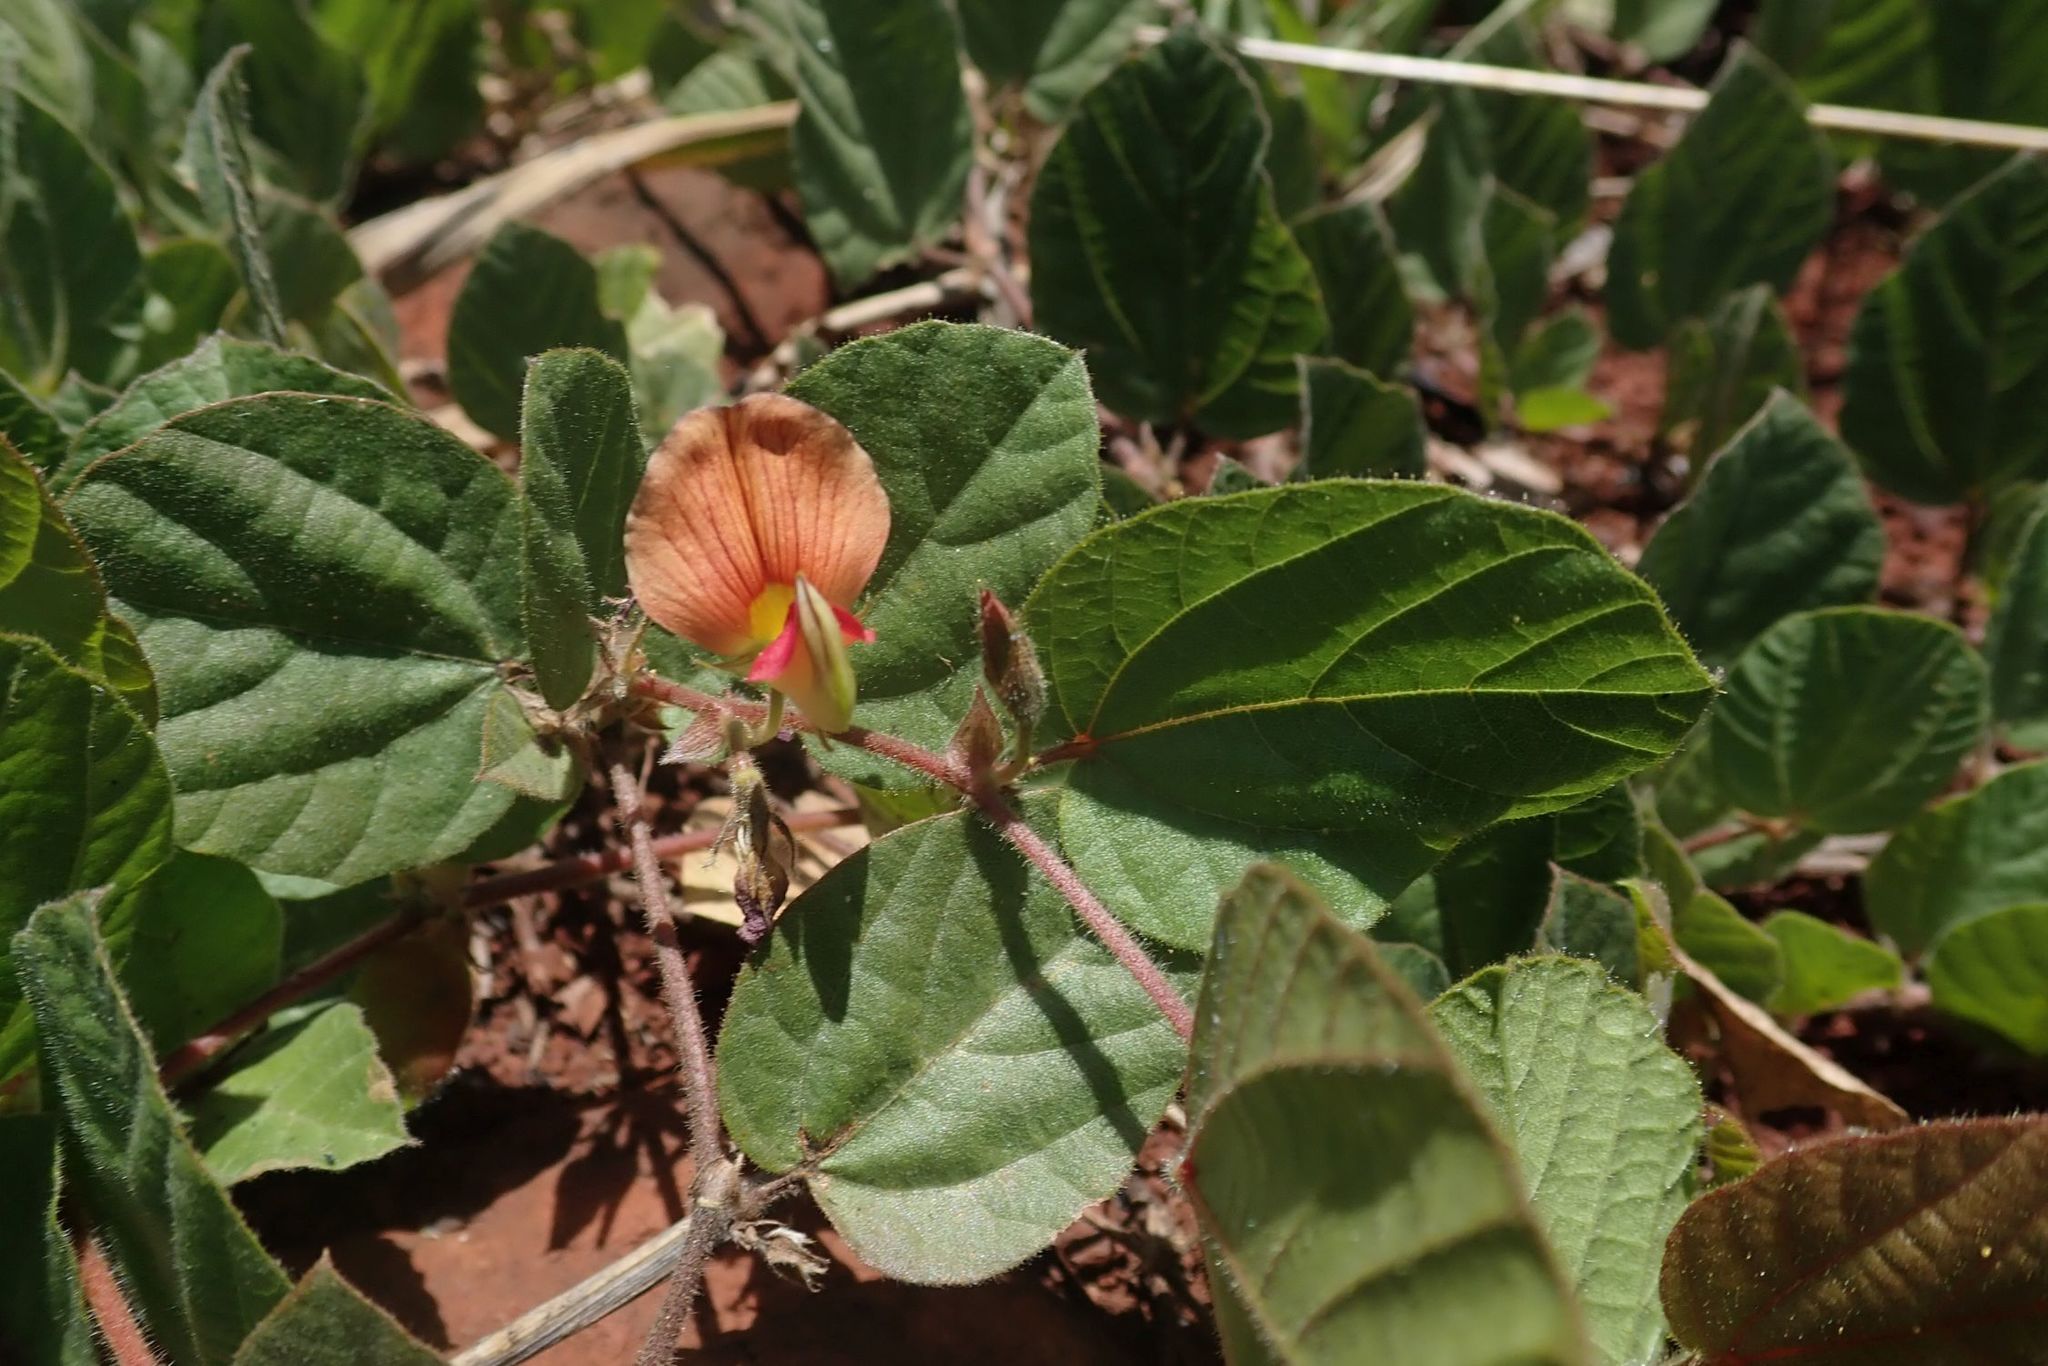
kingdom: Plantae
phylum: Tracheophyta
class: Magnoliopsida
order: Fabales
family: Fabaceae
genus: Rhynchosia
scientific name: Rhynchosia monophylla
